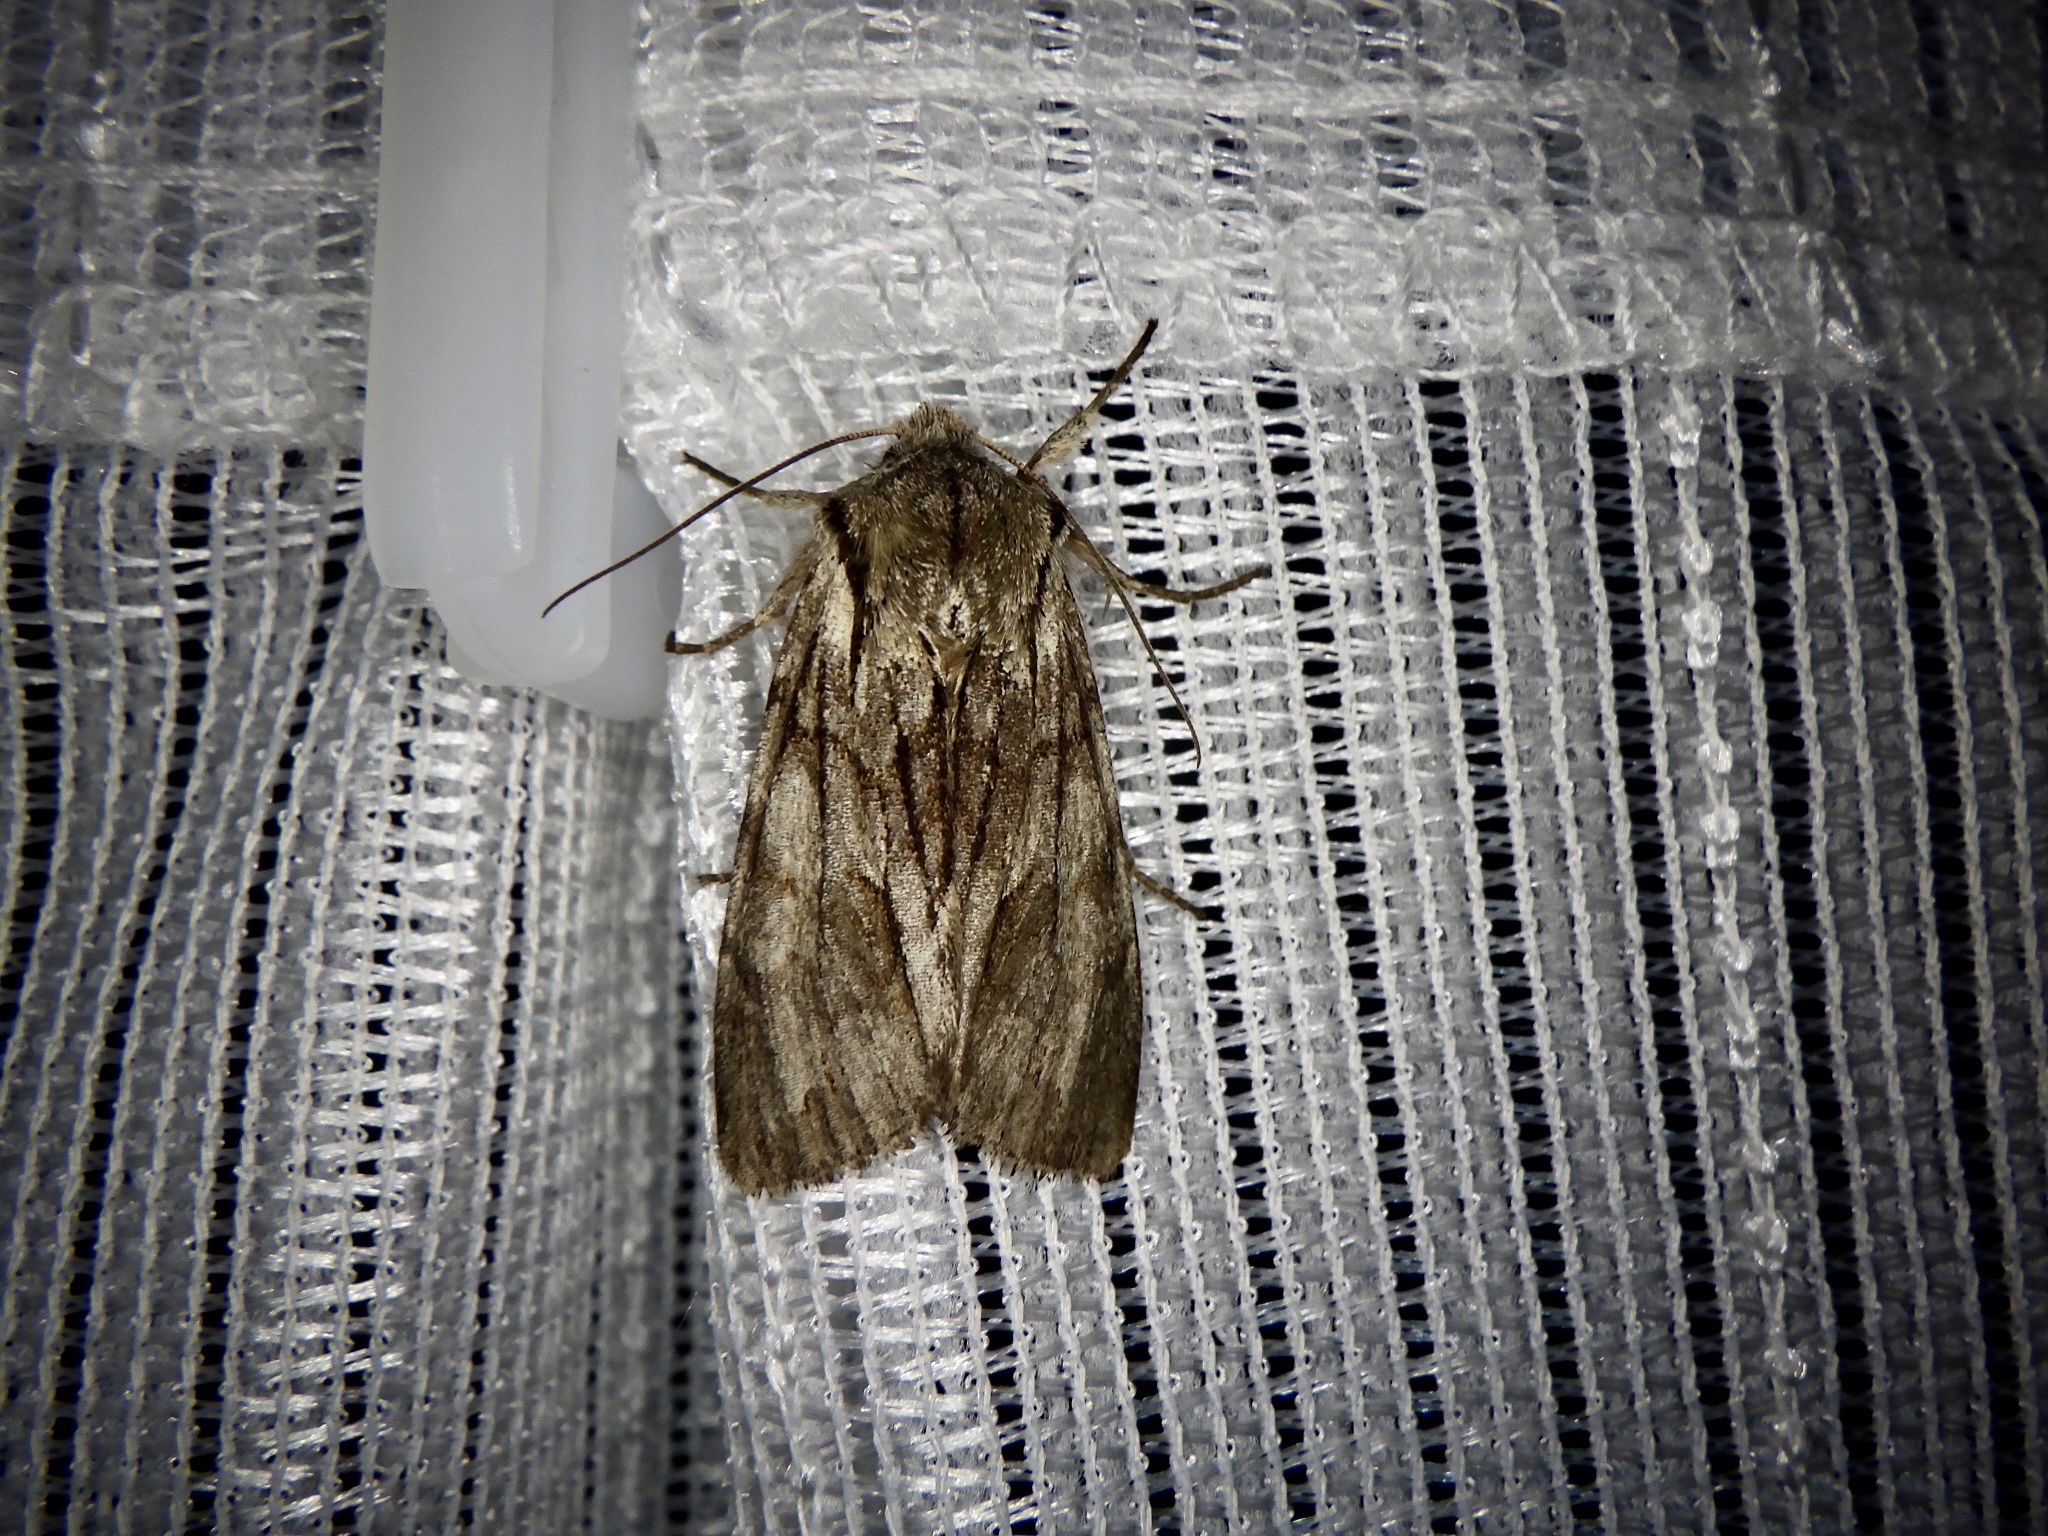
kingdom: Animalia
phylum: Arthropoda
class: Insecta
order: Lepidoptera
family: Noctuidae
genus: Egira
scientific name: Egira saxea
